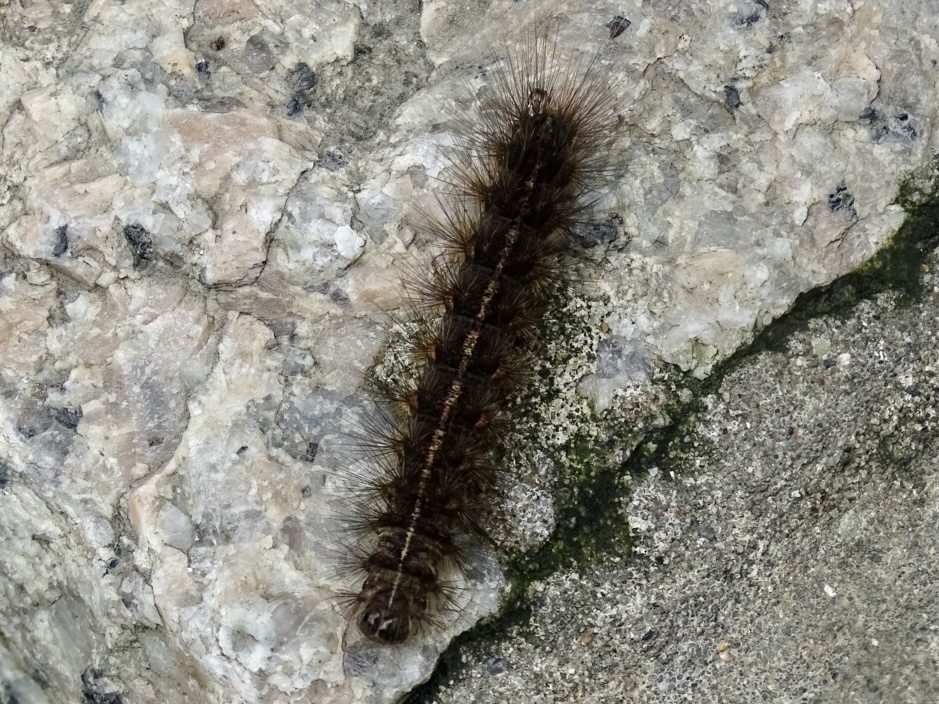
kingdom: Animalia
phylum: Arthropoda
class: Insecta
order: Lepidoptera
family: Erebidae
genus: Creatonotos
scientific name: Creatonotos transiens
